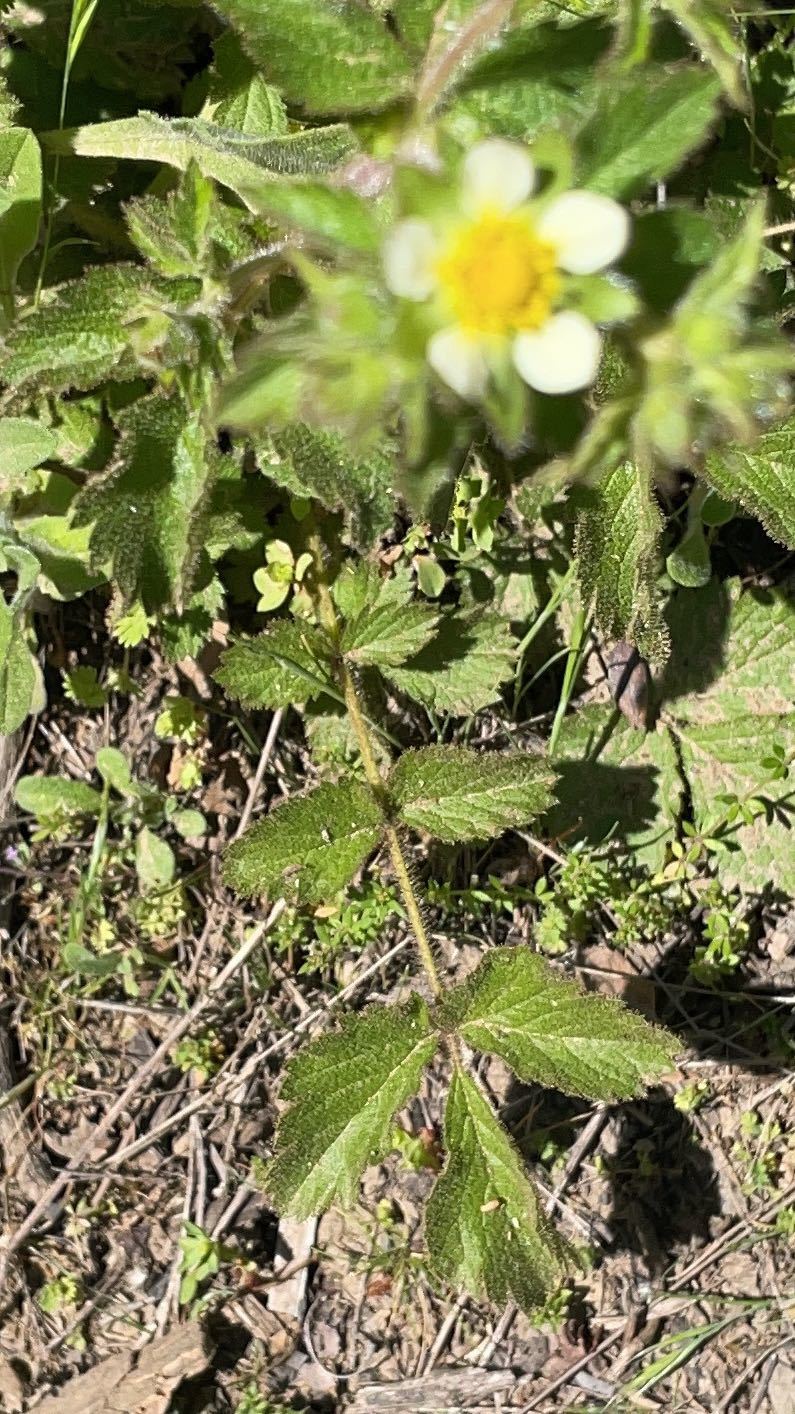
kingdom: Plantae
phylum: Tracheophyta
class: Magnoliopsida
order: Rosales
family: Rosaceae
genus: Drymocallis
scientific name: Drymocallis glandulosa
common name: Sticky cinquefoil
